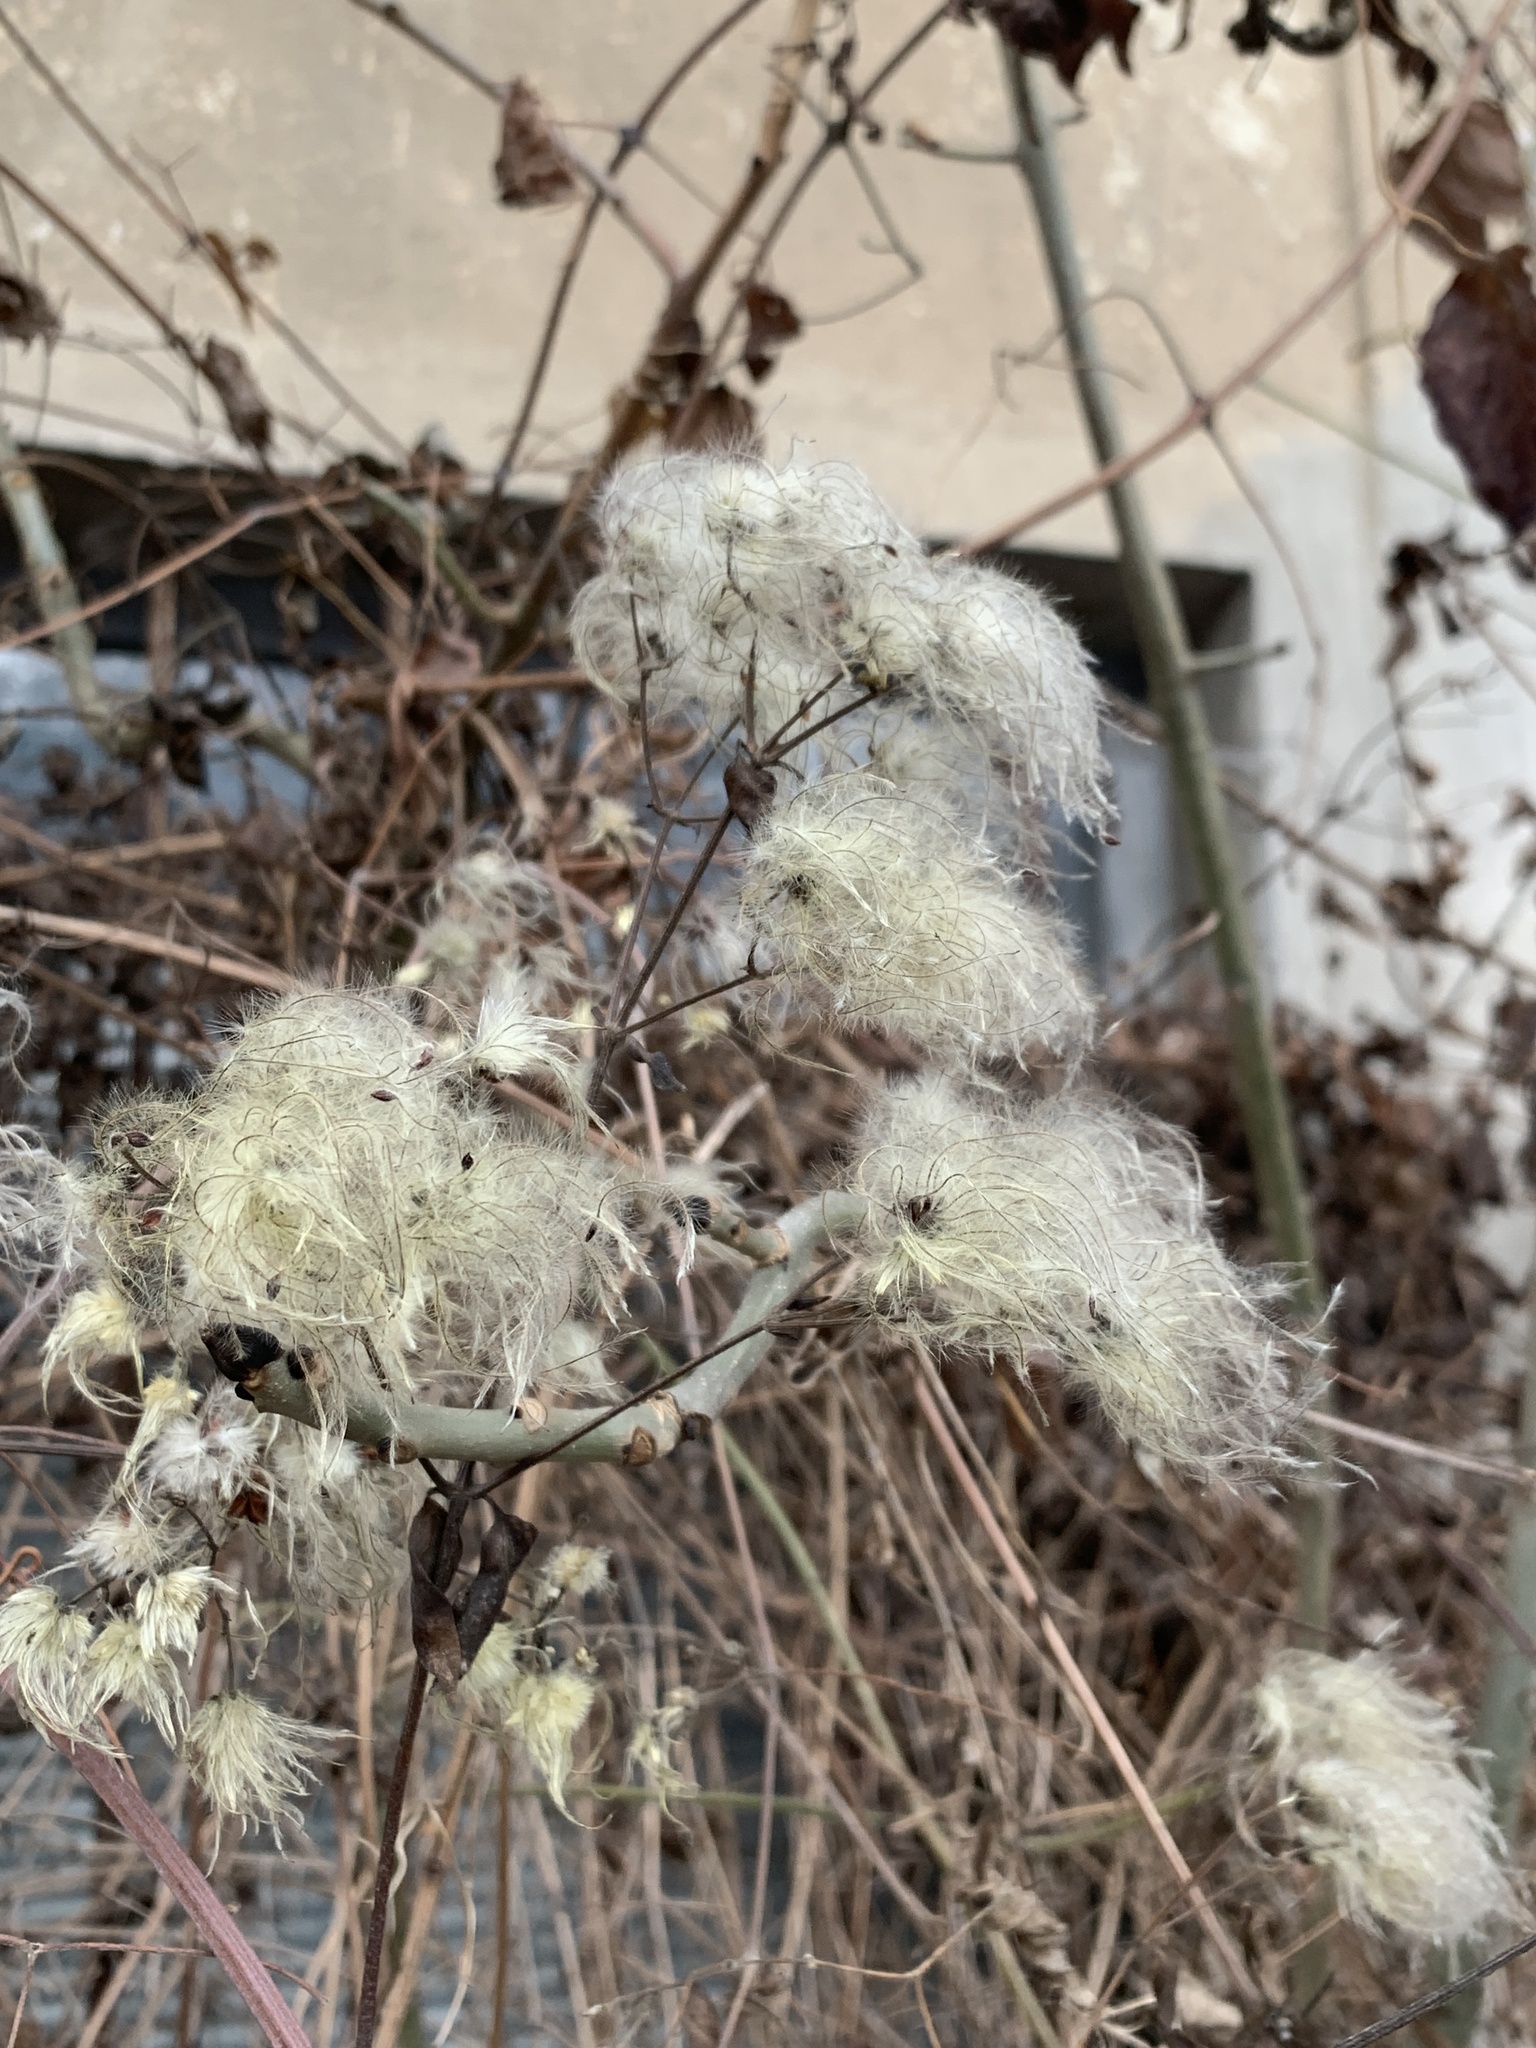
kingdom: Plantae
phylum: Tracheophyta
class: Magnoliopsida
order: Ranunculales
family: Ranunculaceae
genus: Clematis
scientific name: Clematis vitalba
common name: Evergreen clematis
